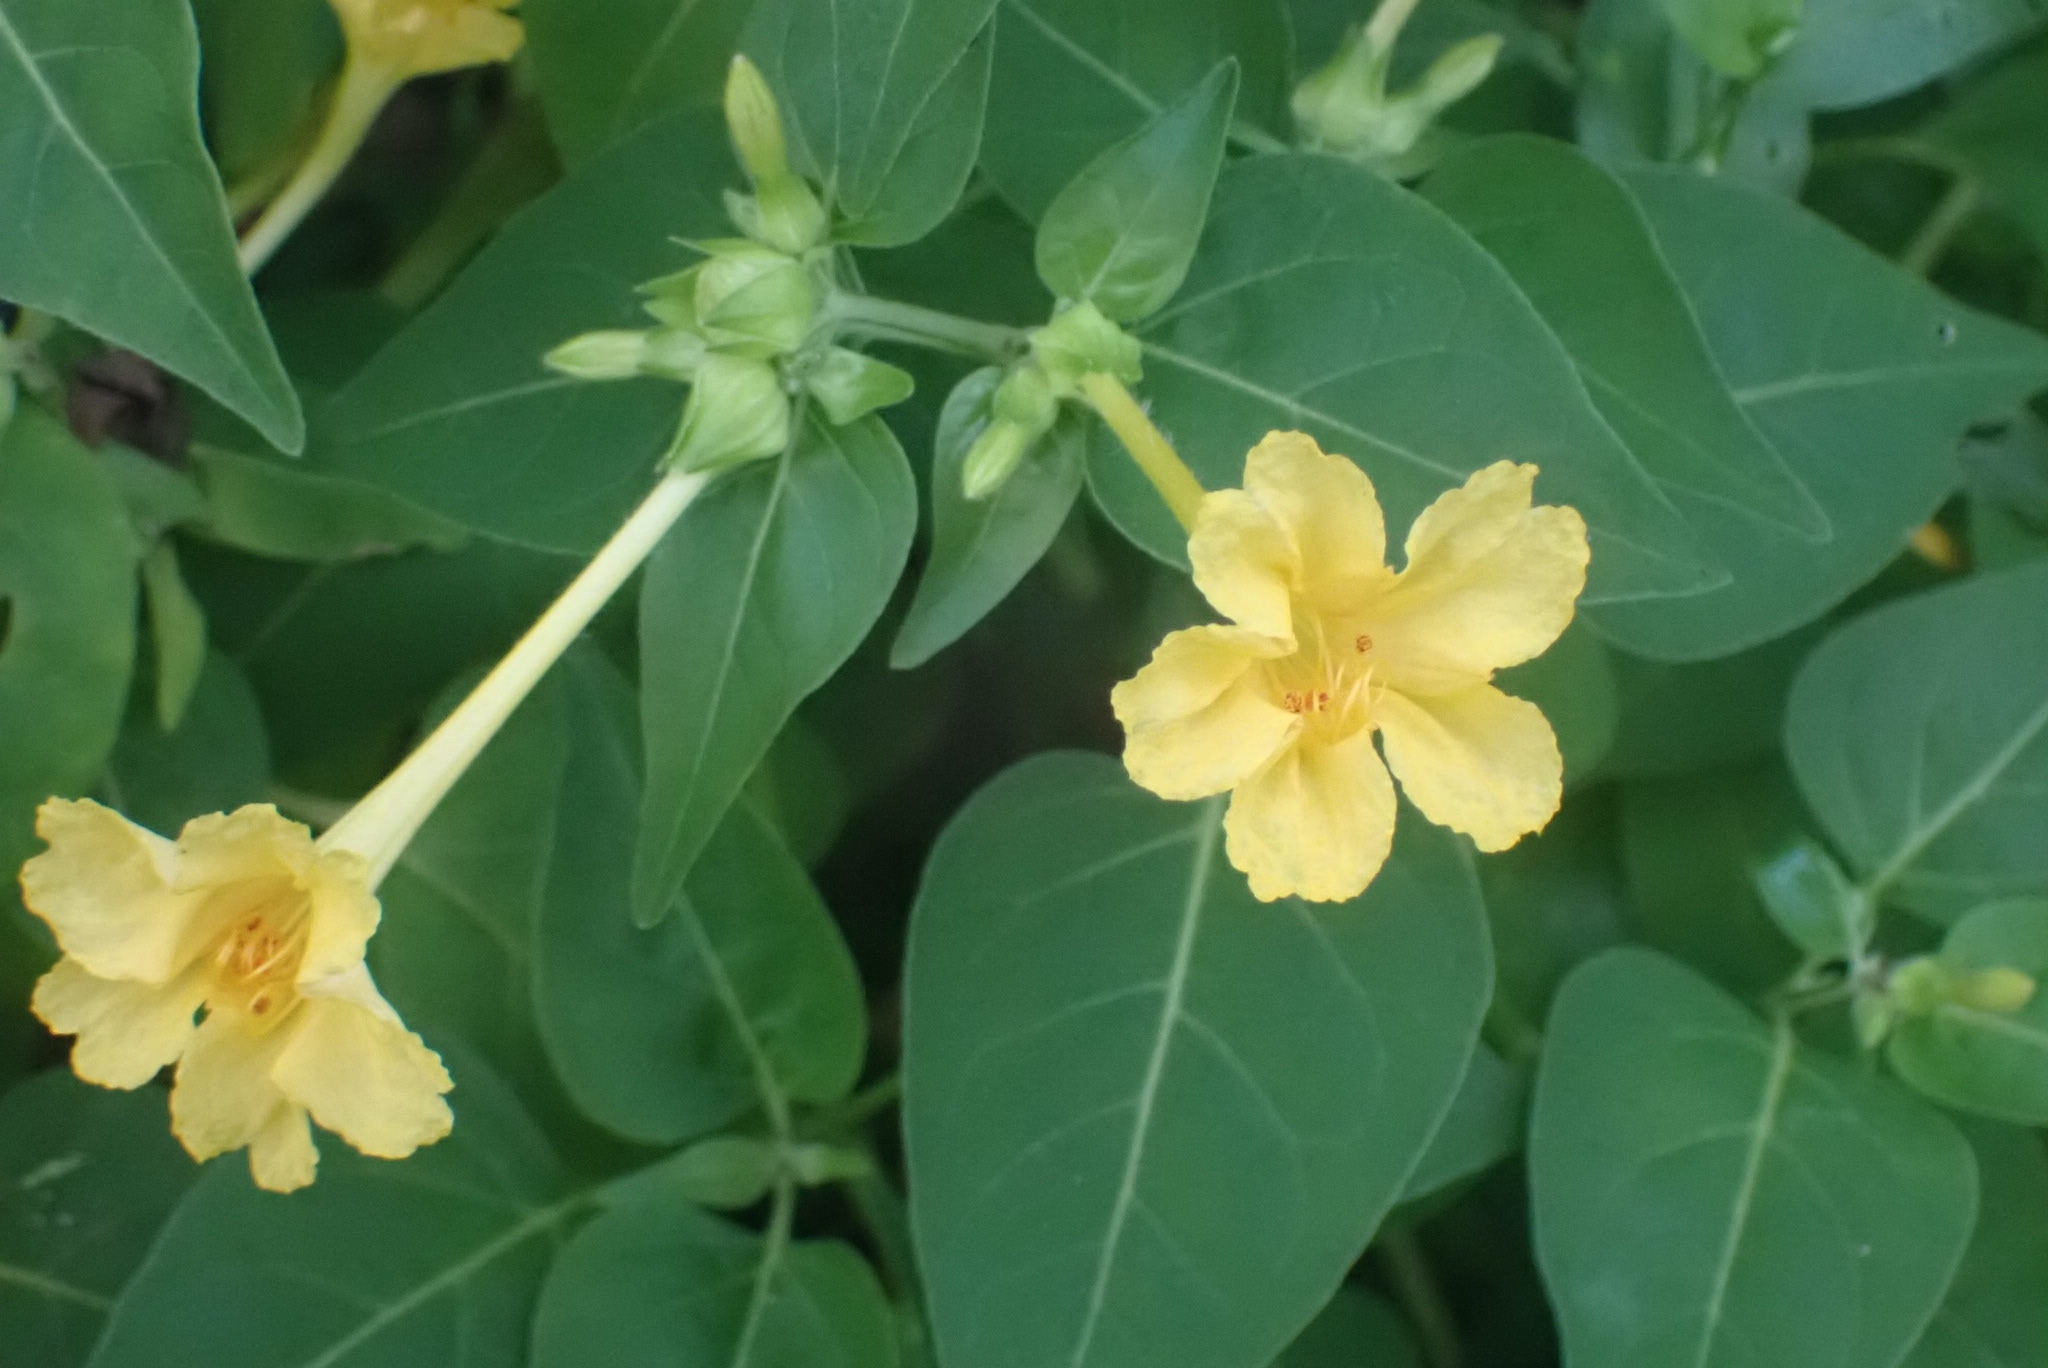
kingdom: Plantae
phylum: Tracheophyta
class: Magnoliopsida
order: Caryophyllales
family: Nyctaginaceae
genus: Mirabilis
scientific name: Mirabilis jalapa
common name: Marvel-of-peru
